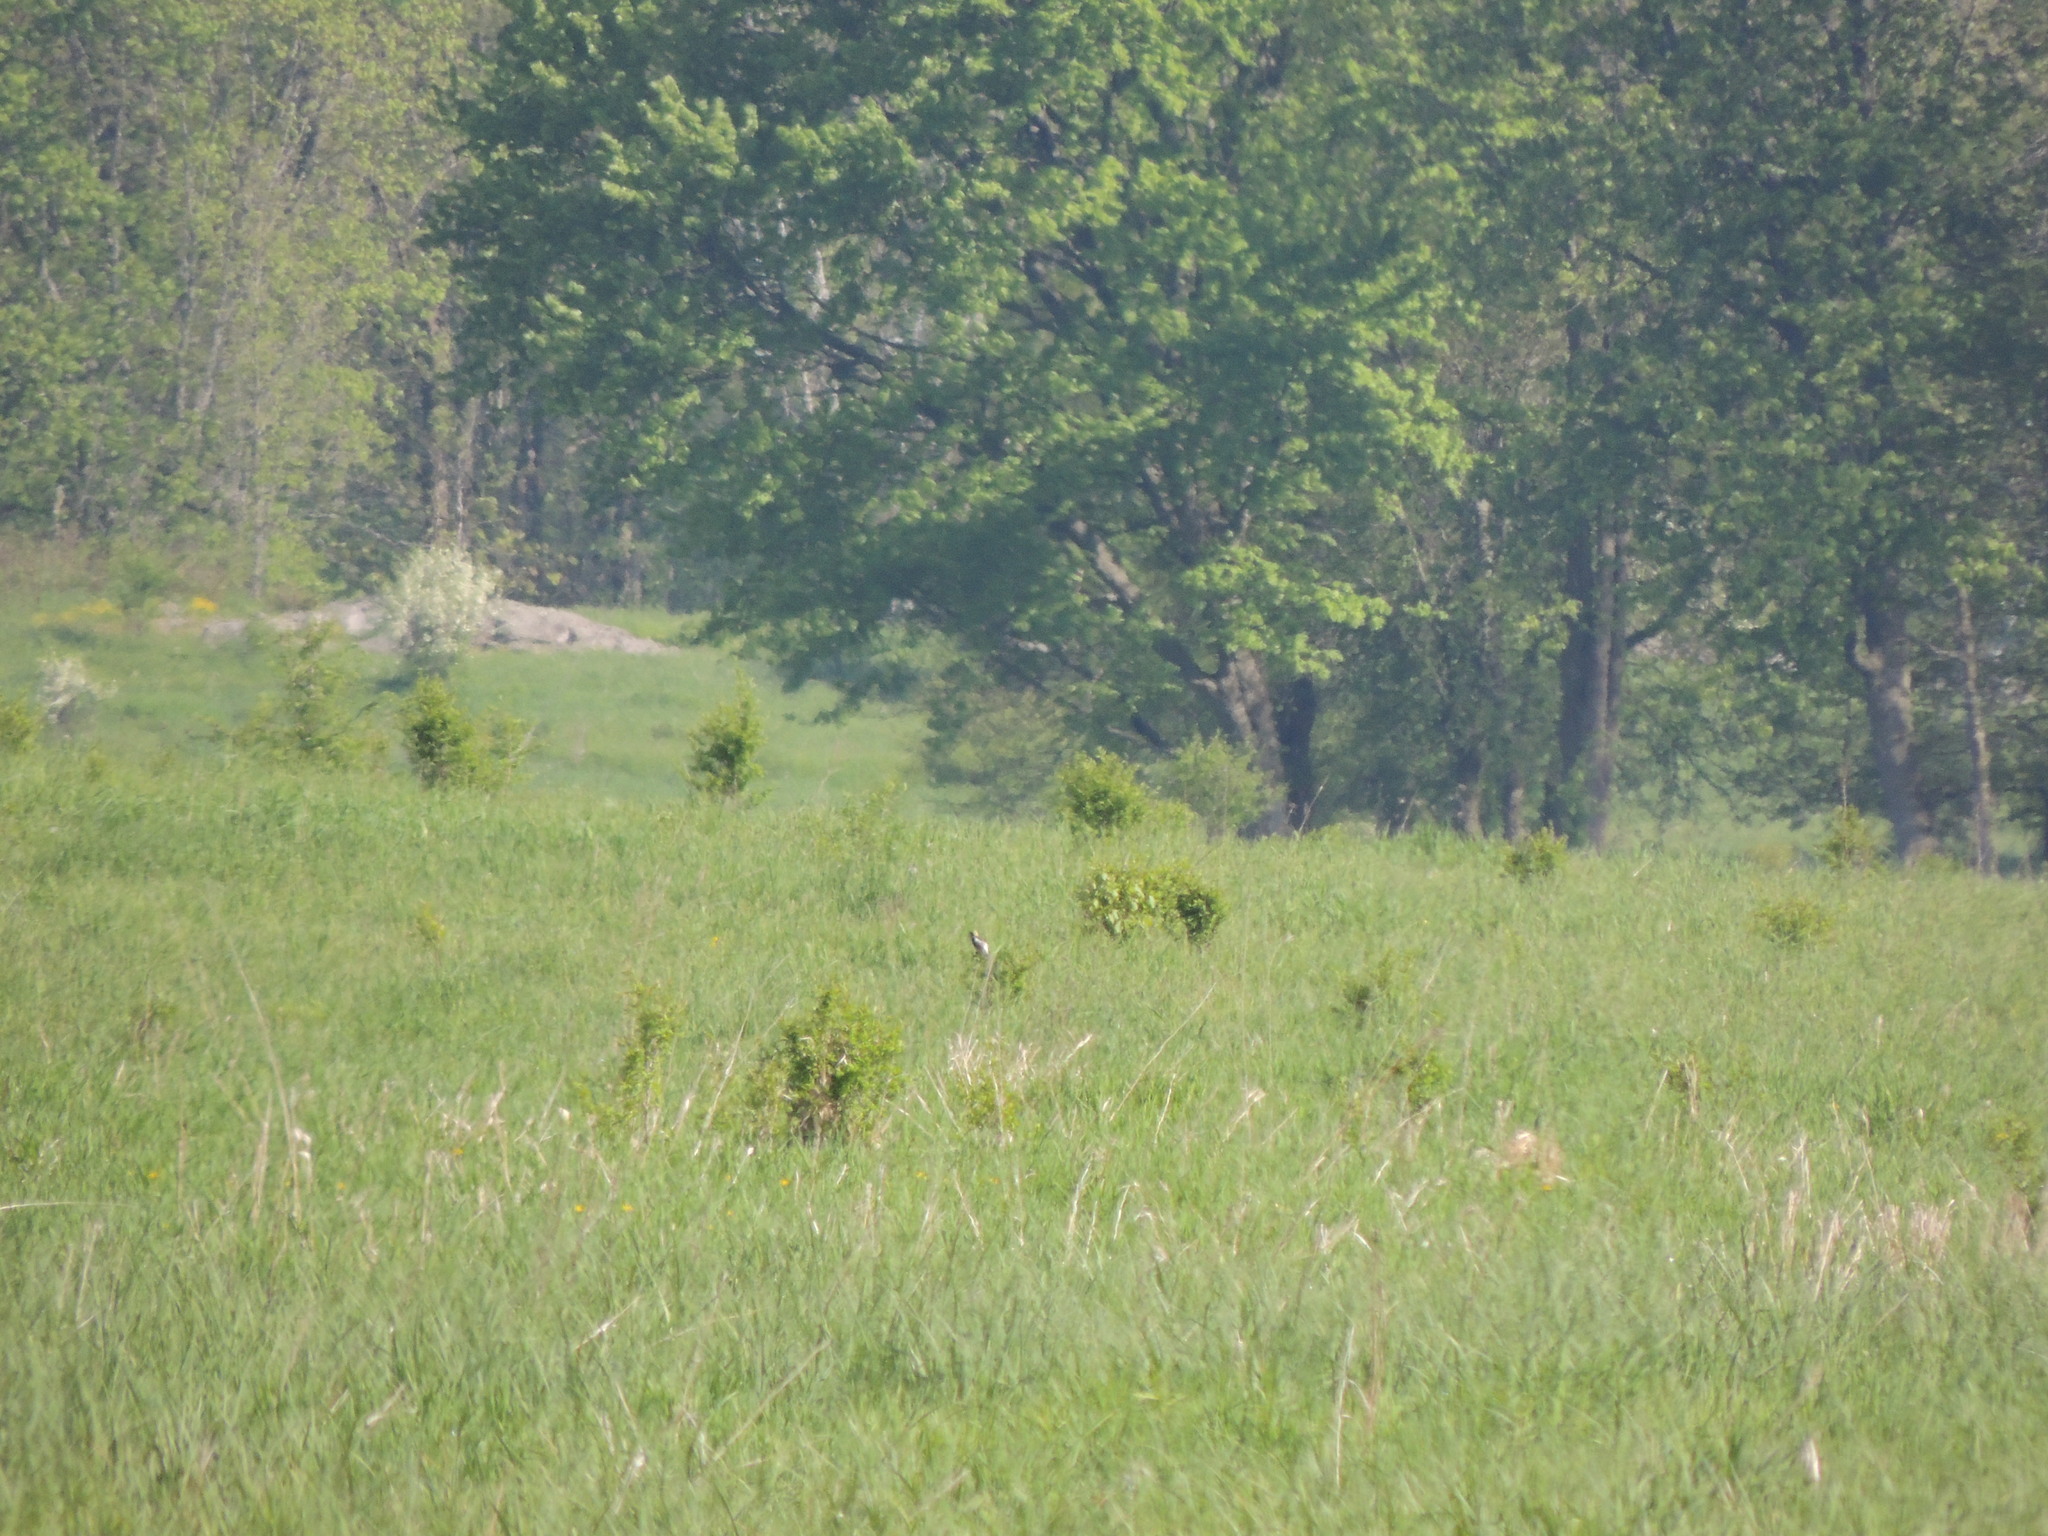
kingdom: Animalia
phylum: Chordata
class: Aves
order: Passeriformes
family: Icteridae
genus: Dolichonyx
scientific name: Dolichonyx oryzivorus
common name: Bobolink
